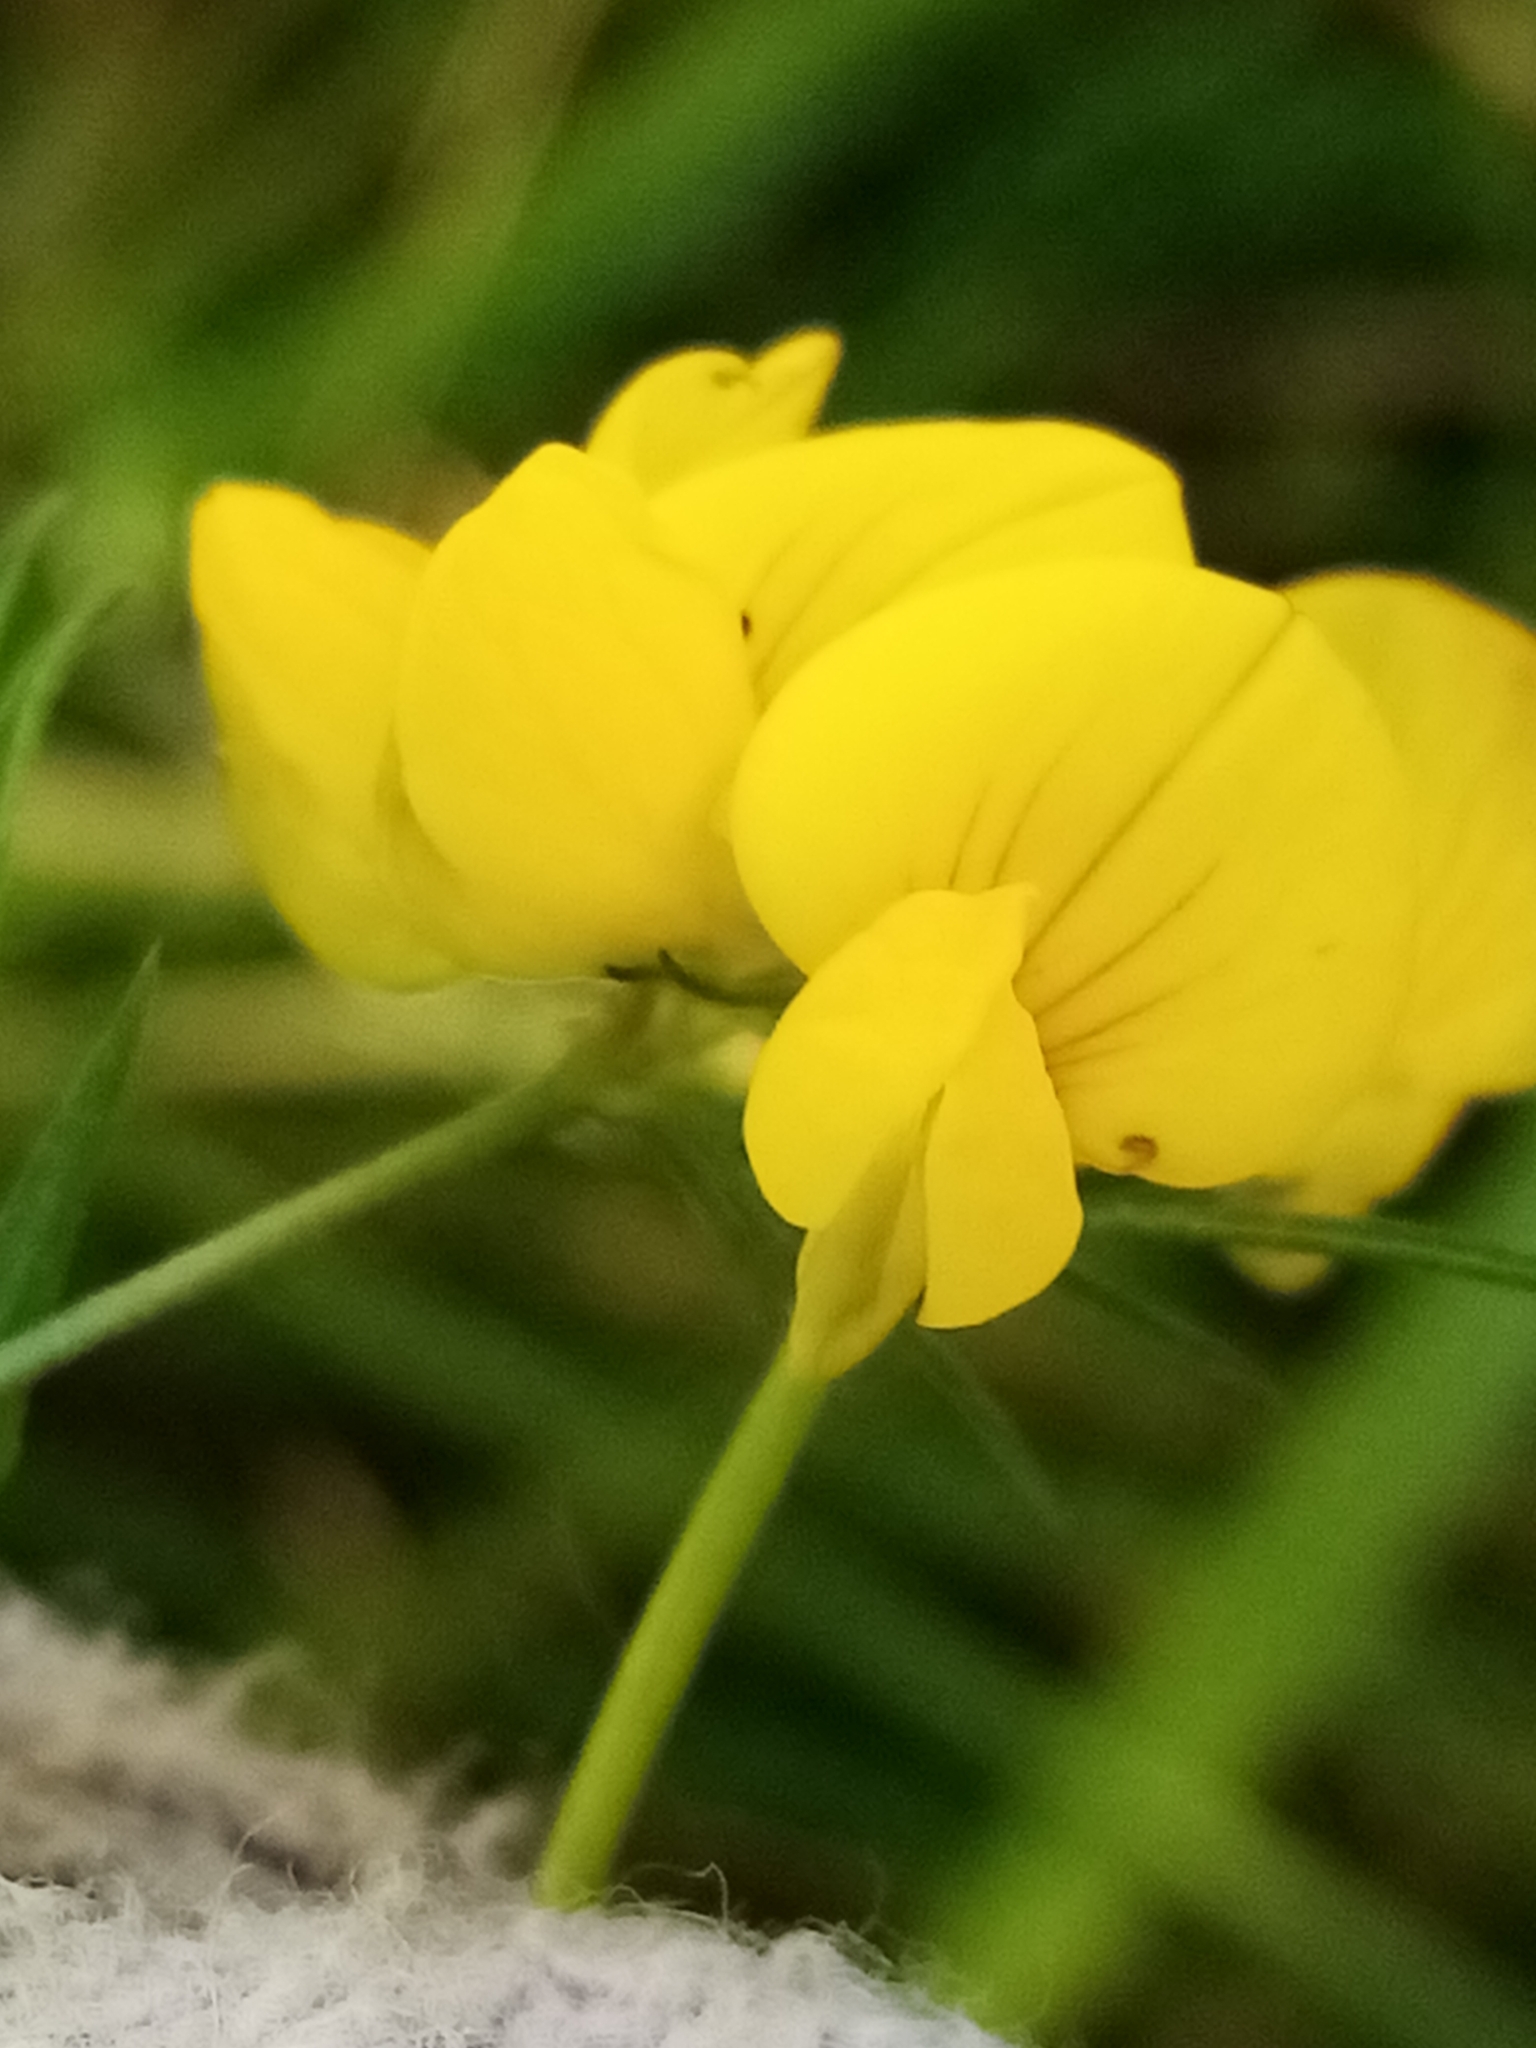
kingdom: Plantae
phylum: Tracheophyta
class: Magnoliopsida
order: Fabales
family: Fabaceae
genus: Lotus
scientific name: Lotus tenuis
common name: Narrow-leaved bird's-foot-trefoil
